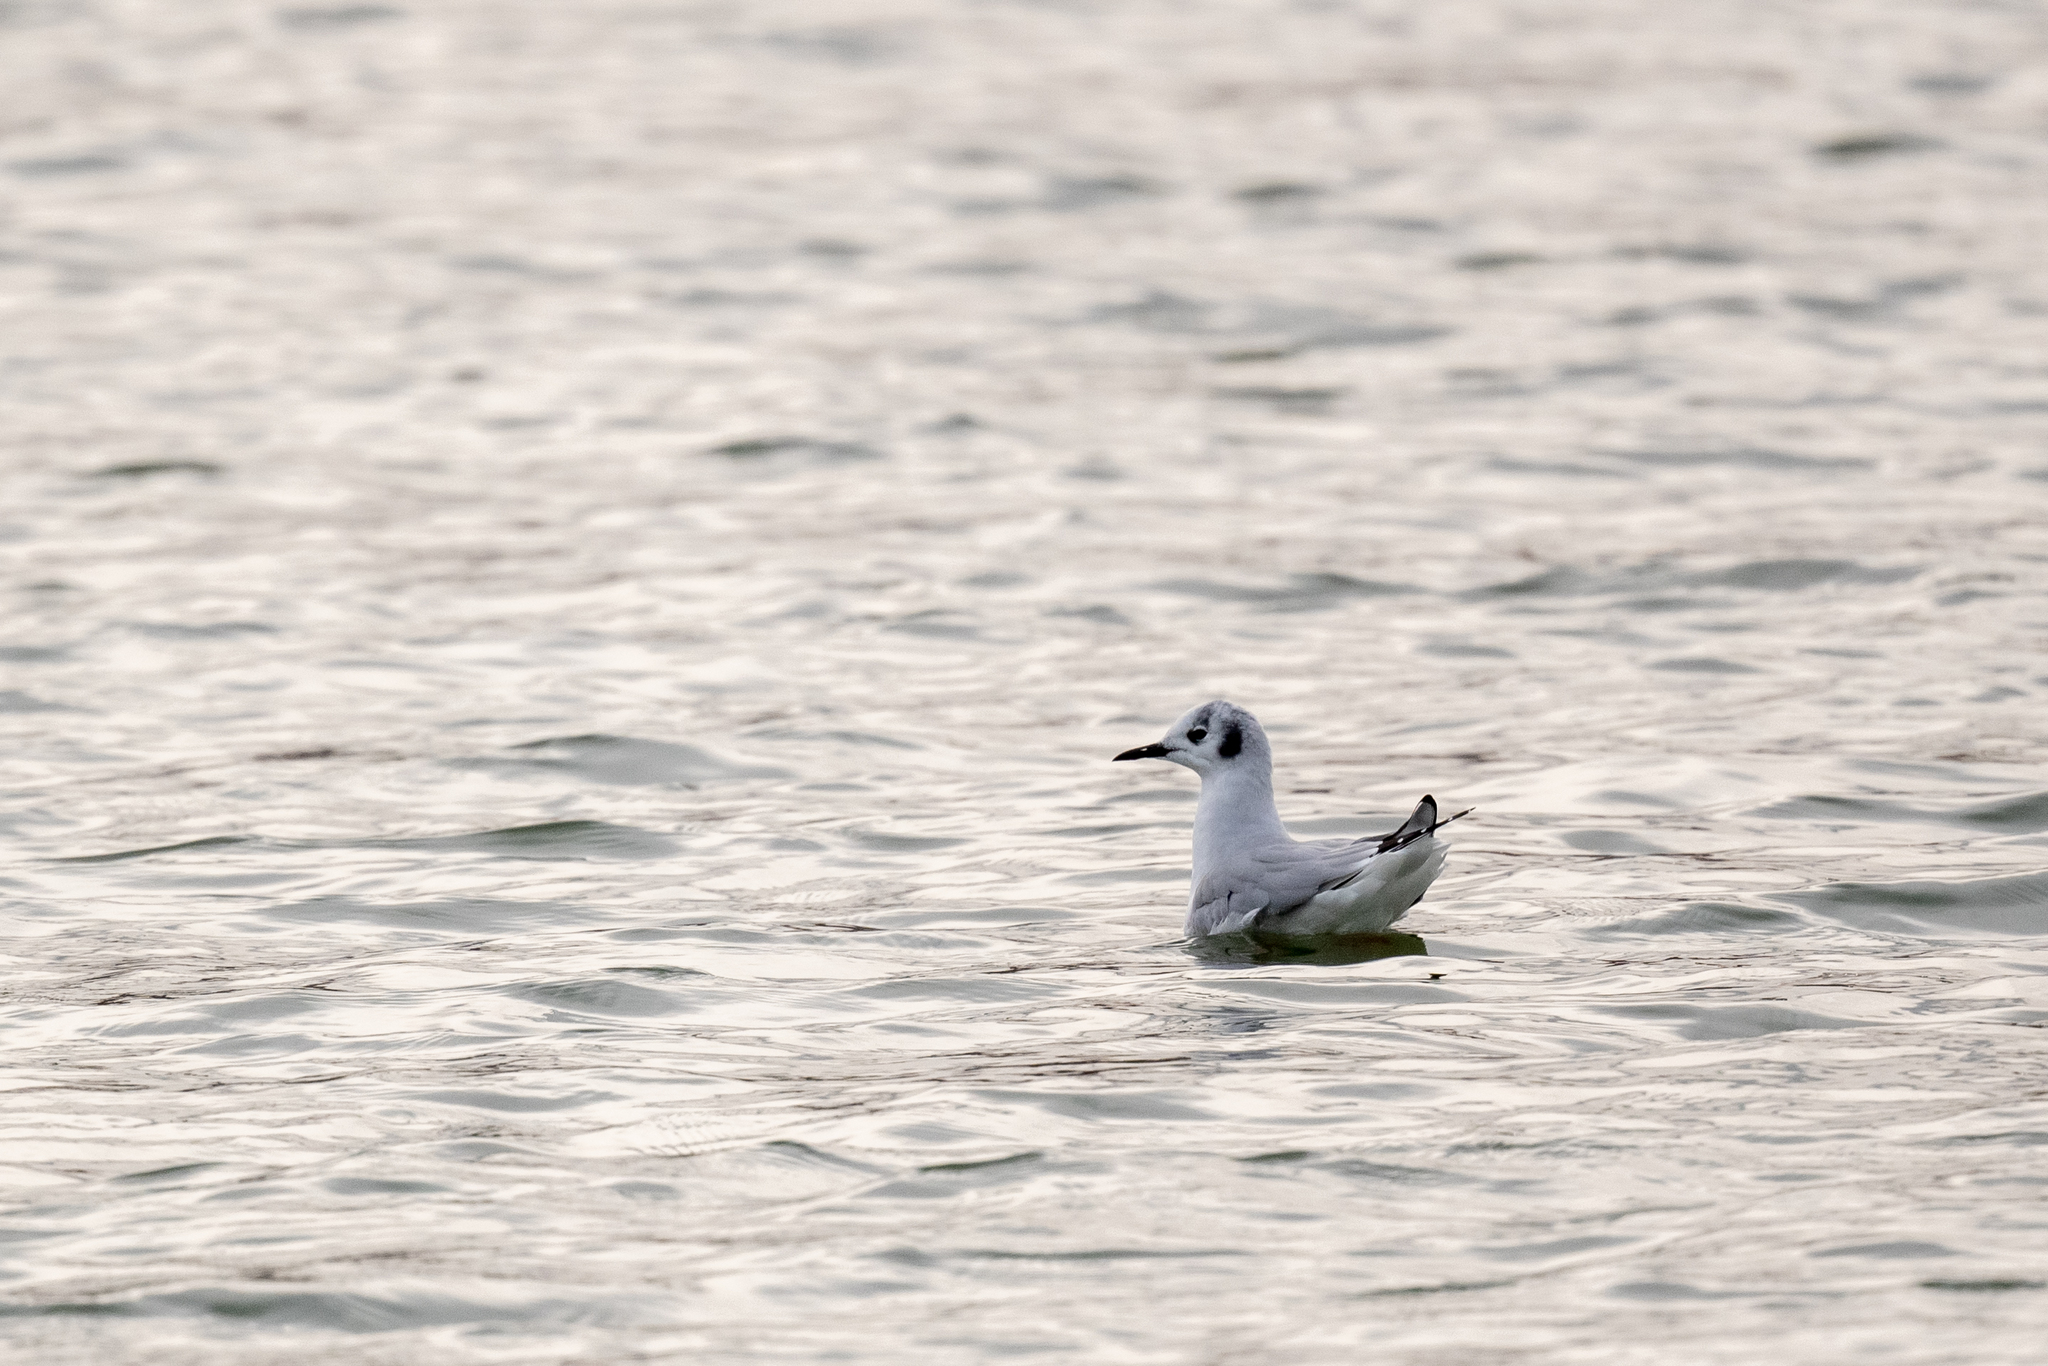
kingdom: Animalia
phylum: Chordata
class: Aves
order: Charadriiformes
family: Laridae
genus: Chroicocephalus
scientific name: Chroicocephalus philadelphia
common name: Bonaparte's gull
